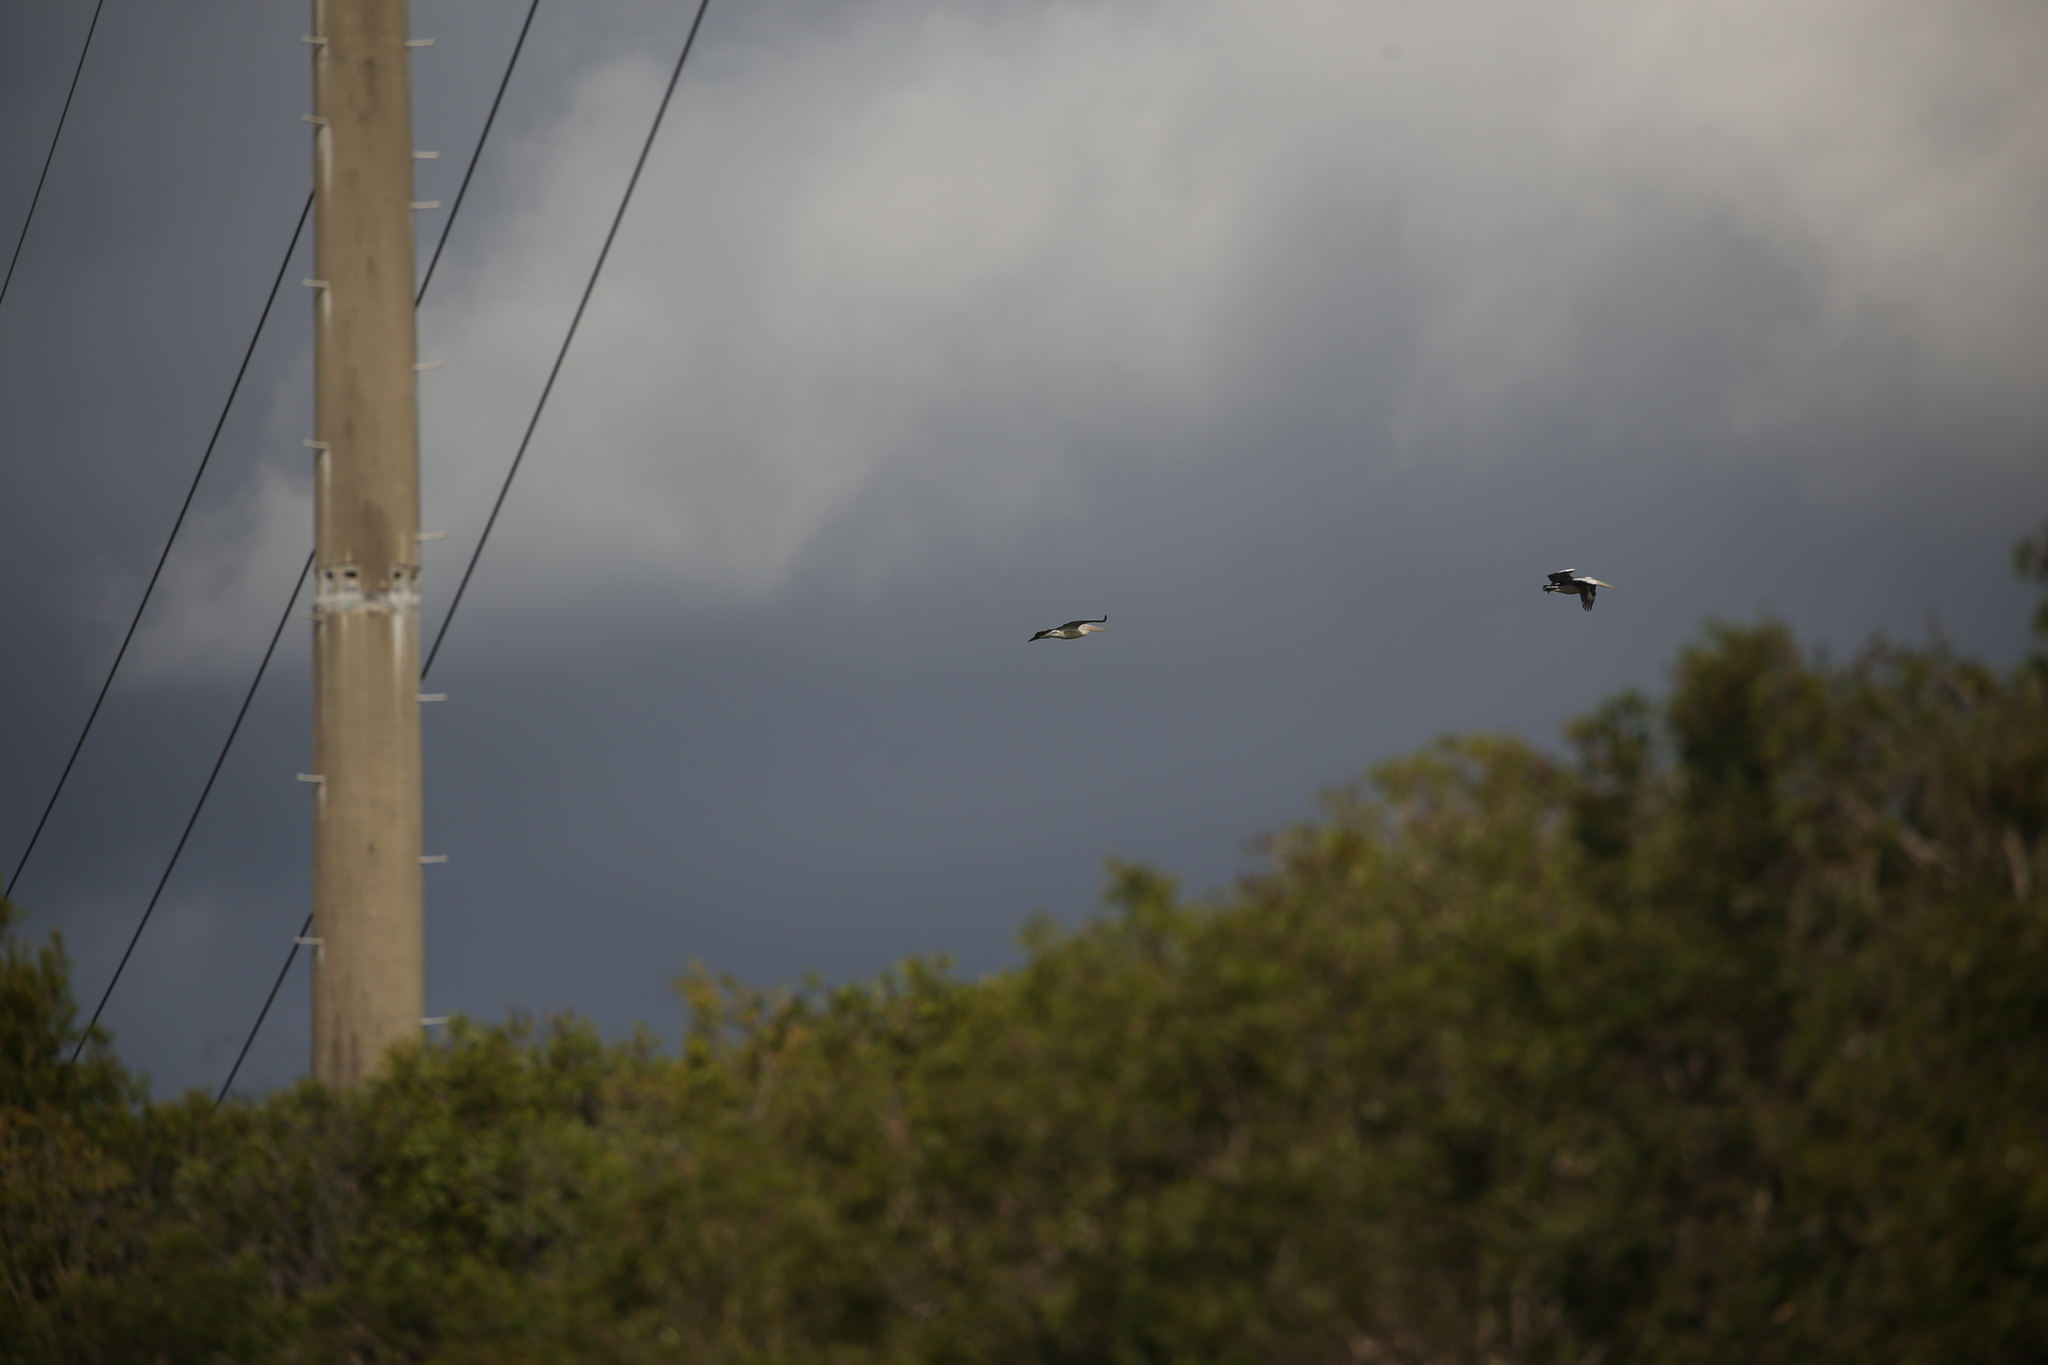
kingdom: Animalia
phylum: Chordata
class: Aves
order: Pelecaniformes
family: Pelecanidae
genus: Pelecanus
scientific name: Pelecanus conspicillatus
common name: Australian pelican
